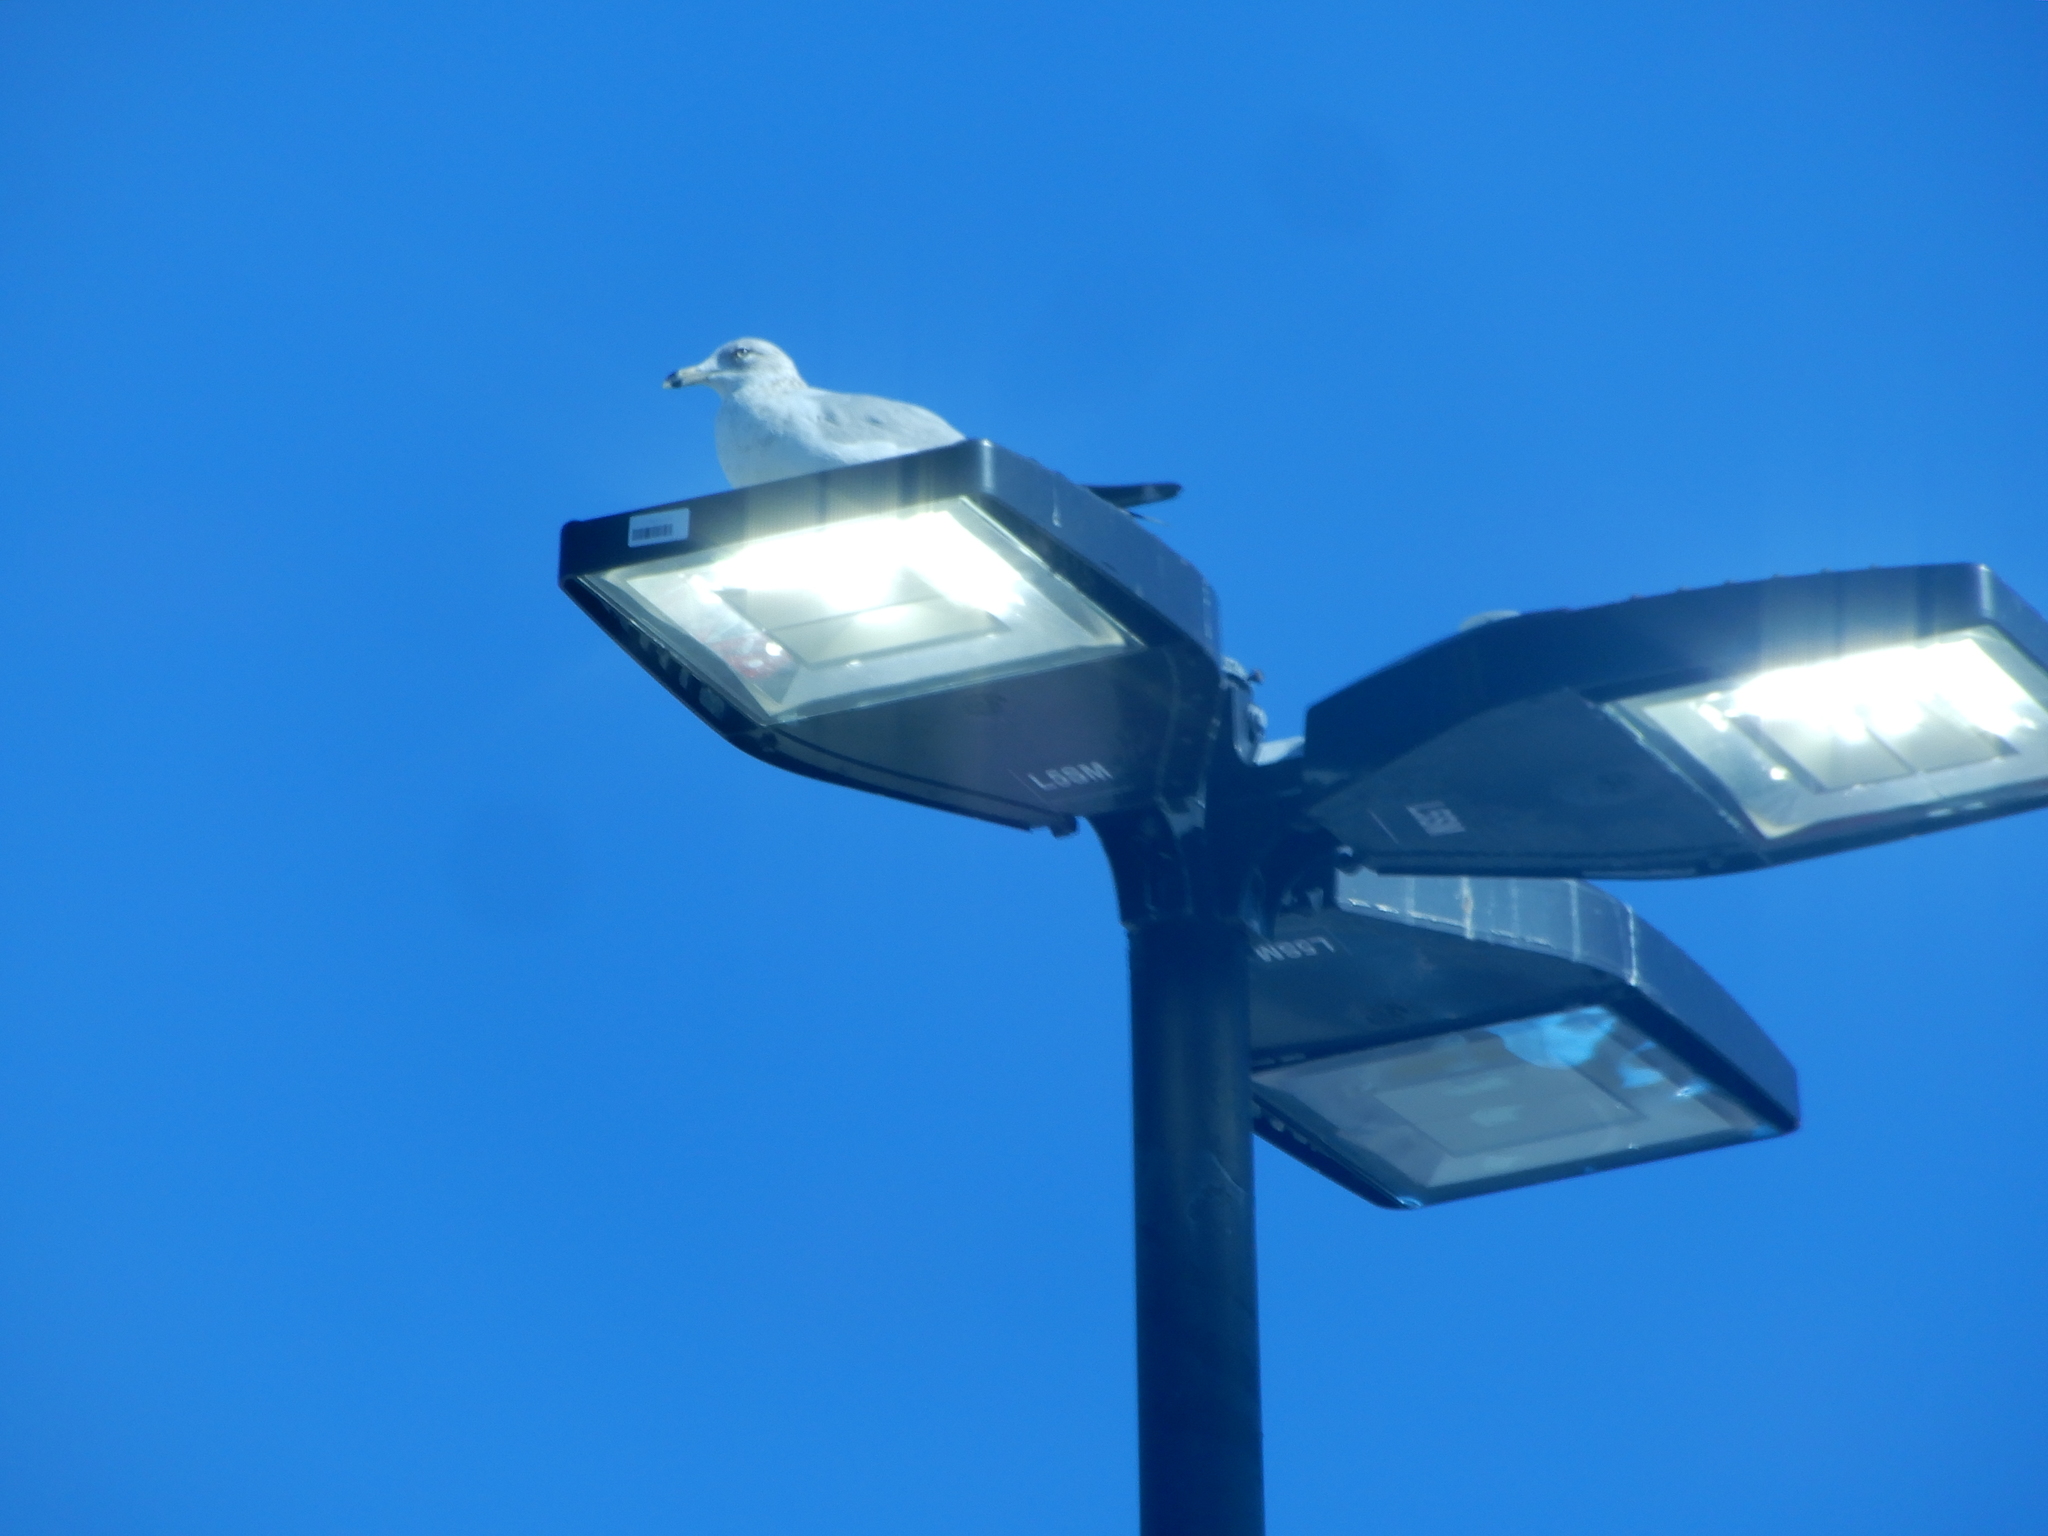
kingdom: Animalia
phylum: Chordata
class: Aves
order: Charadriiformes
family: Laridae
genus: Larus
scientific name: Larus delawarensis
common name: Ring-billed gull
